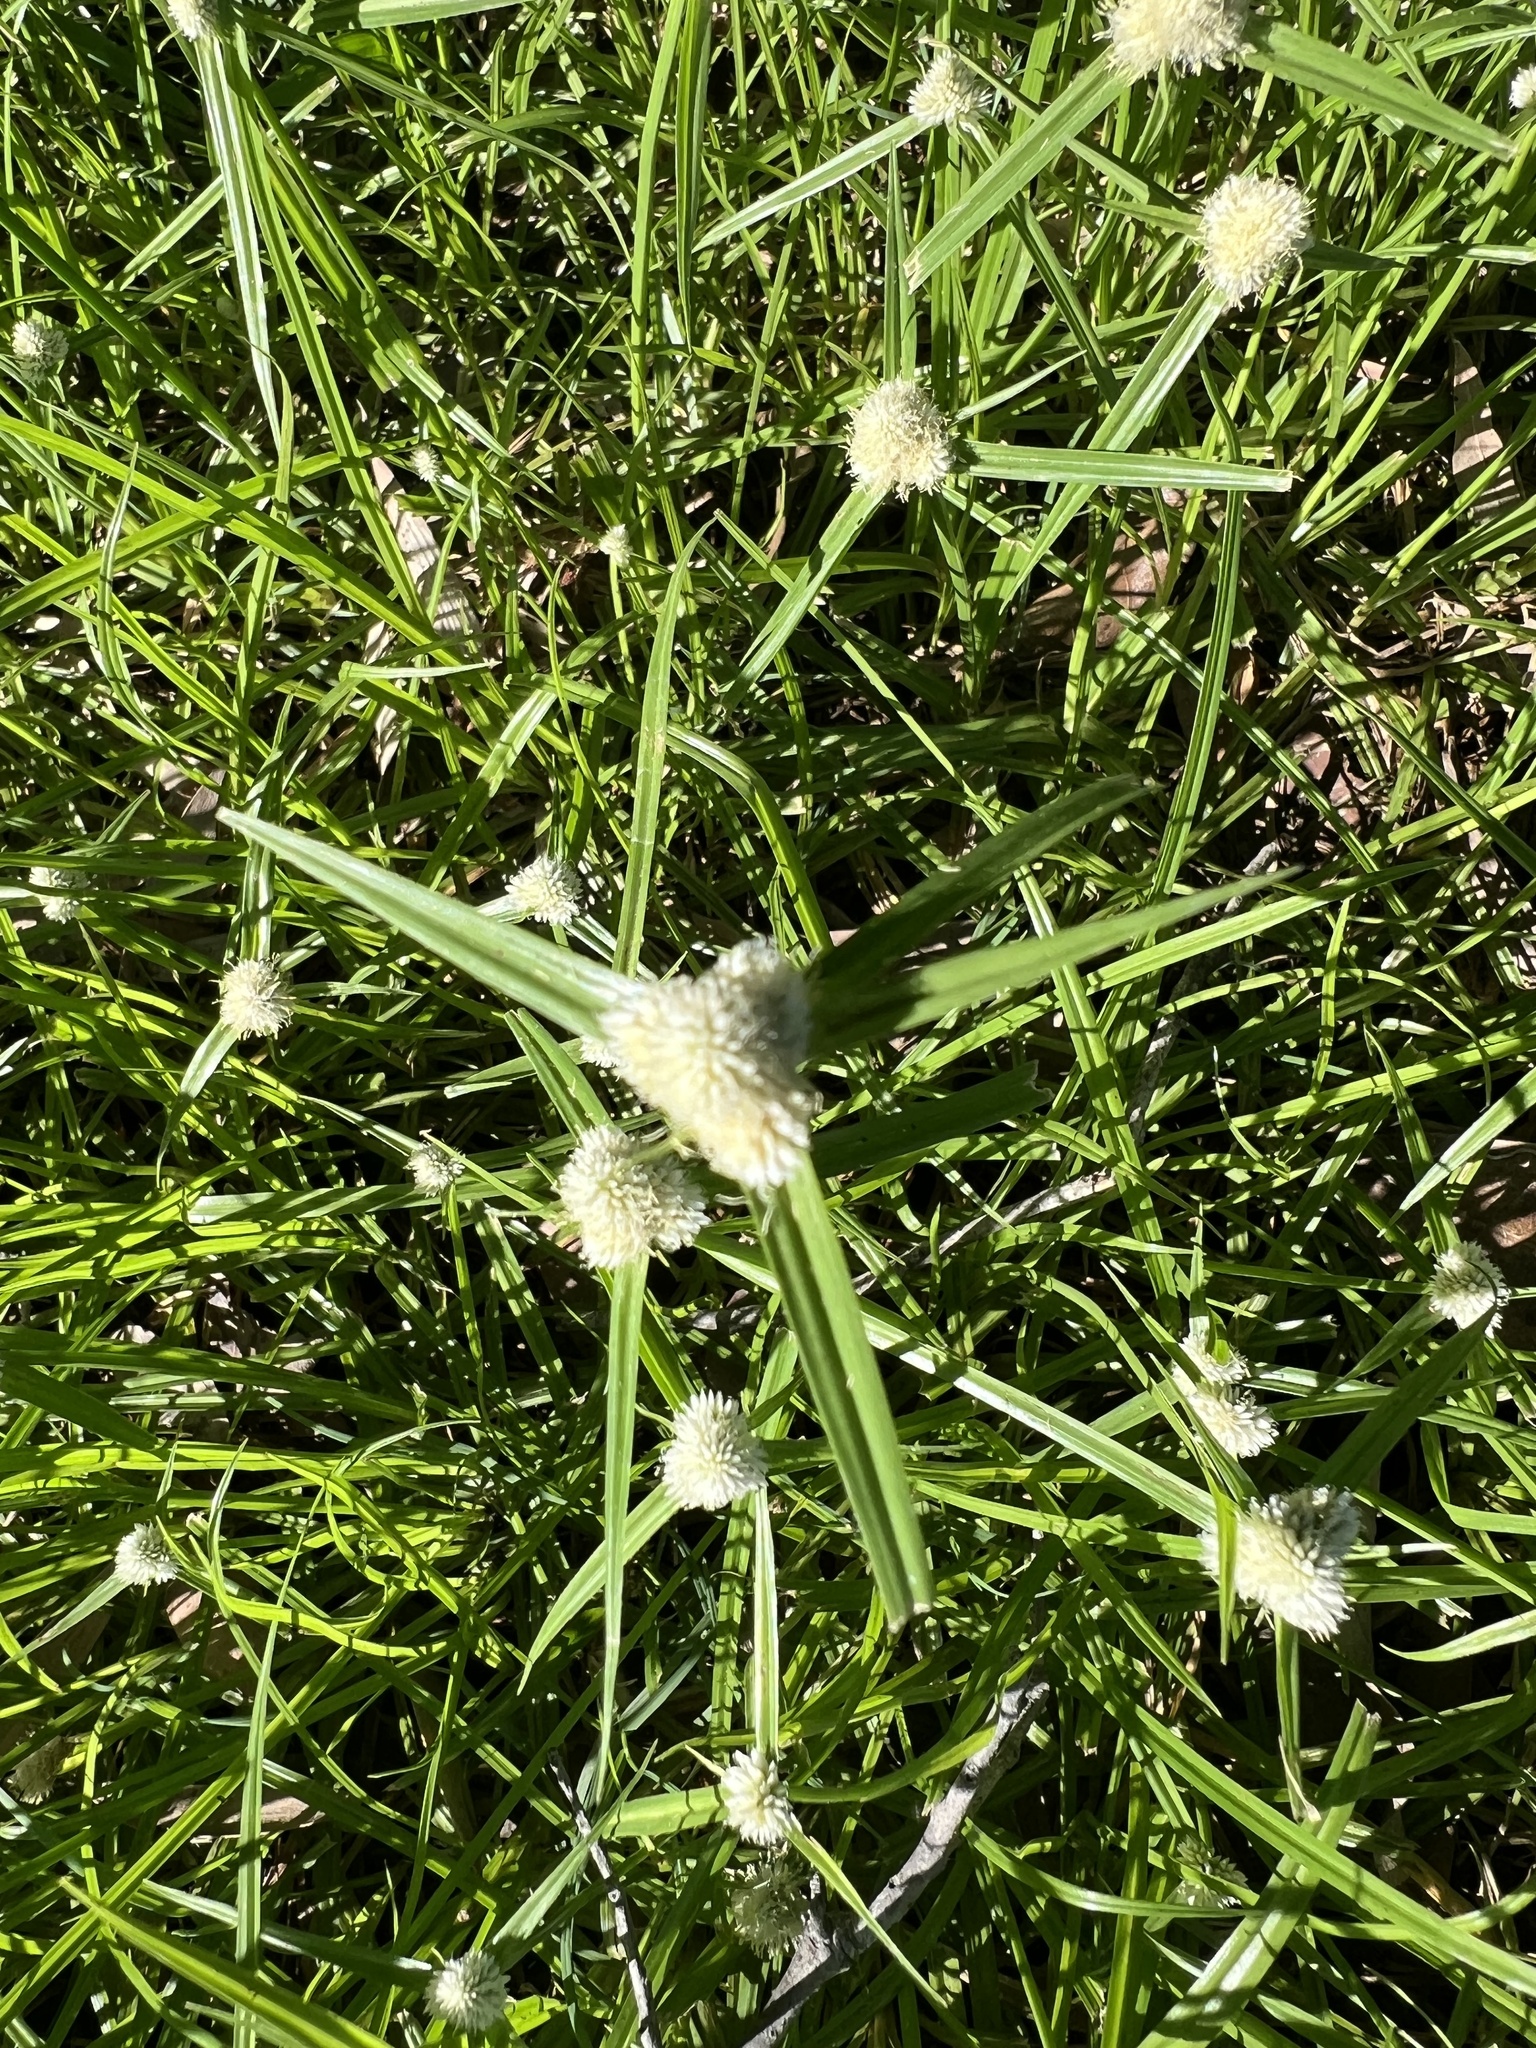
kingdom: Plantae
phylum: Tracheophyta
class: Liliopsida
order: Poales
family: Cyperaceae
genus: Cyperus
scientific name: Cyperus sesquiflorus
